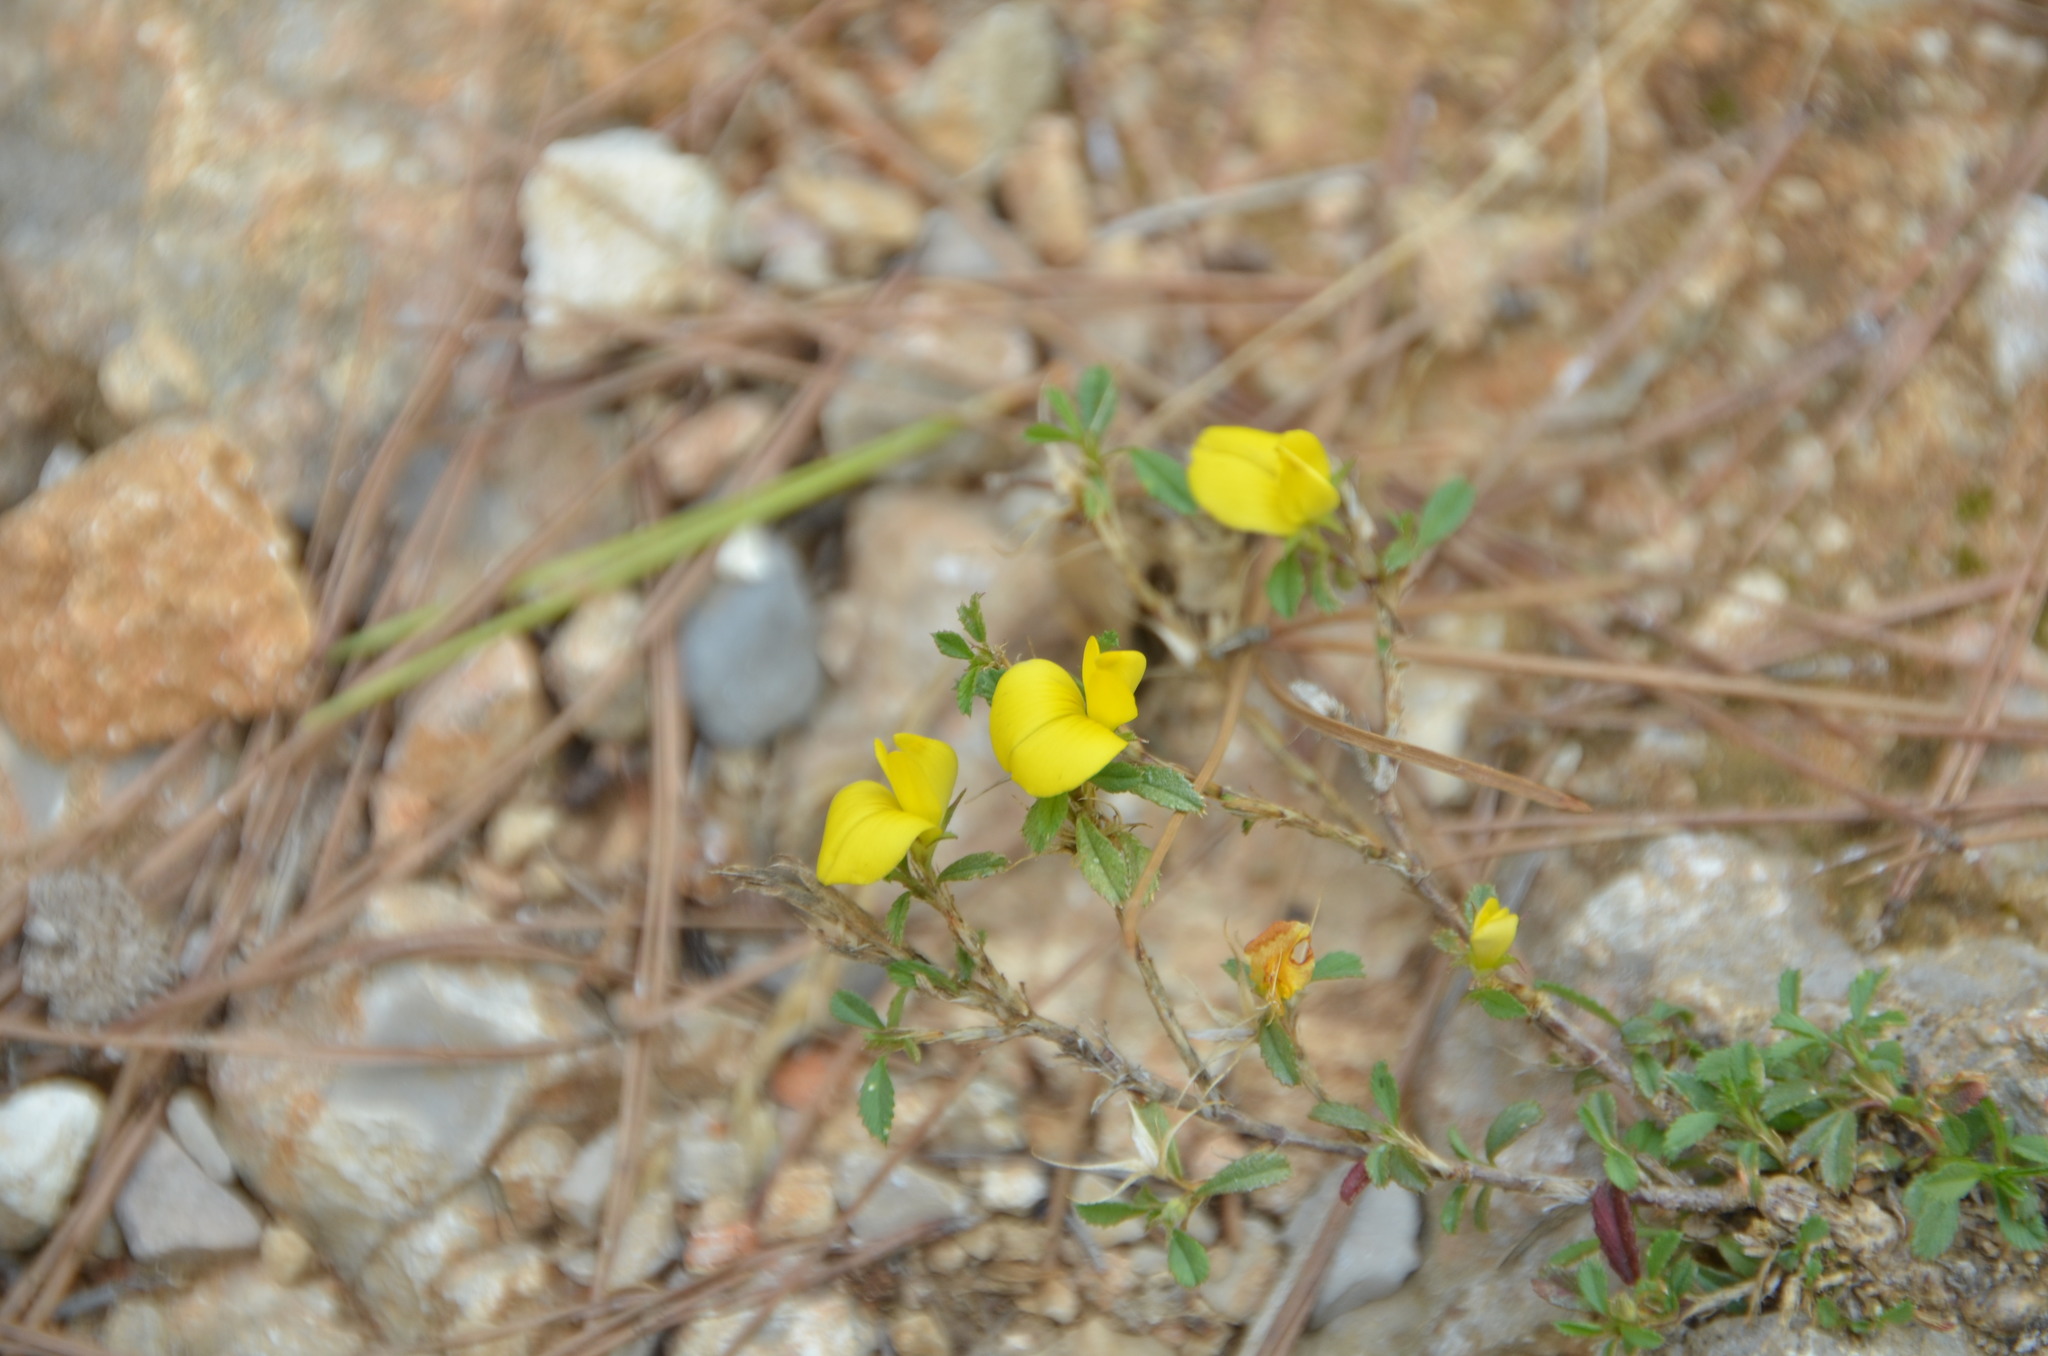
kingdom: Plantae
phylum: Tracheophyta
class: Magnoliopsida
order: Fabales
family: Fabaceae
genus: Ononis
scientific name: Ononis minutissima
